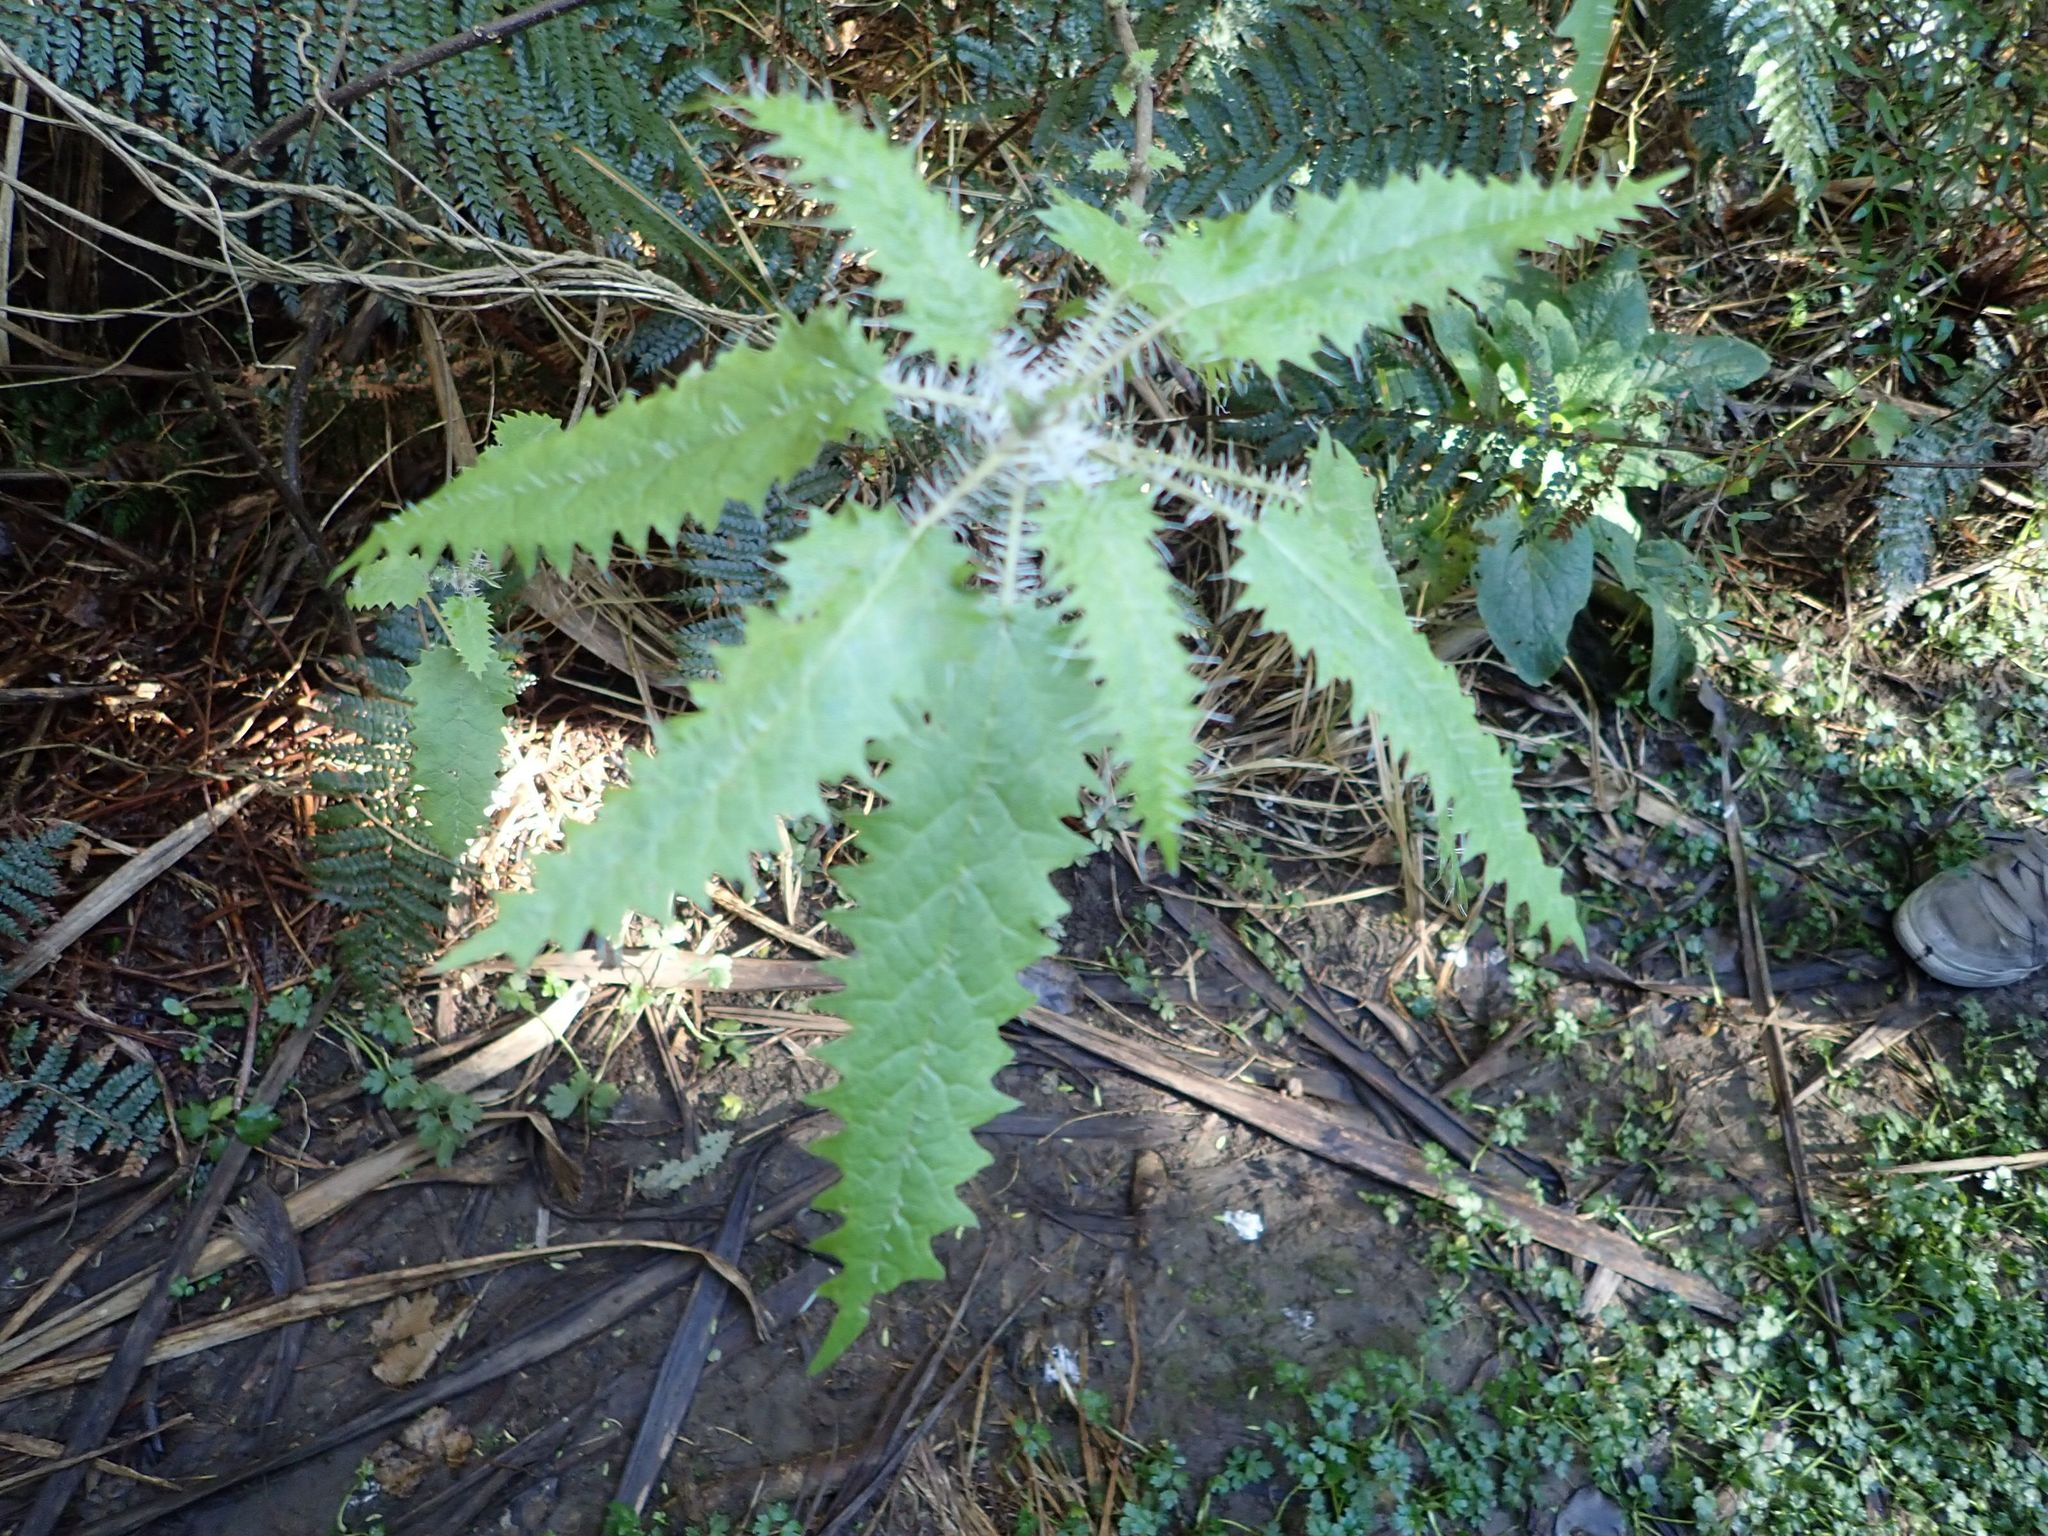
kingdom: Plantae
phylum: Tracheophyta
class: Magnoliopsida
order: Rosales
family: Urticaceae
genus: Urtica
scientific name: Urtica ferox
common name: Tree nettle
